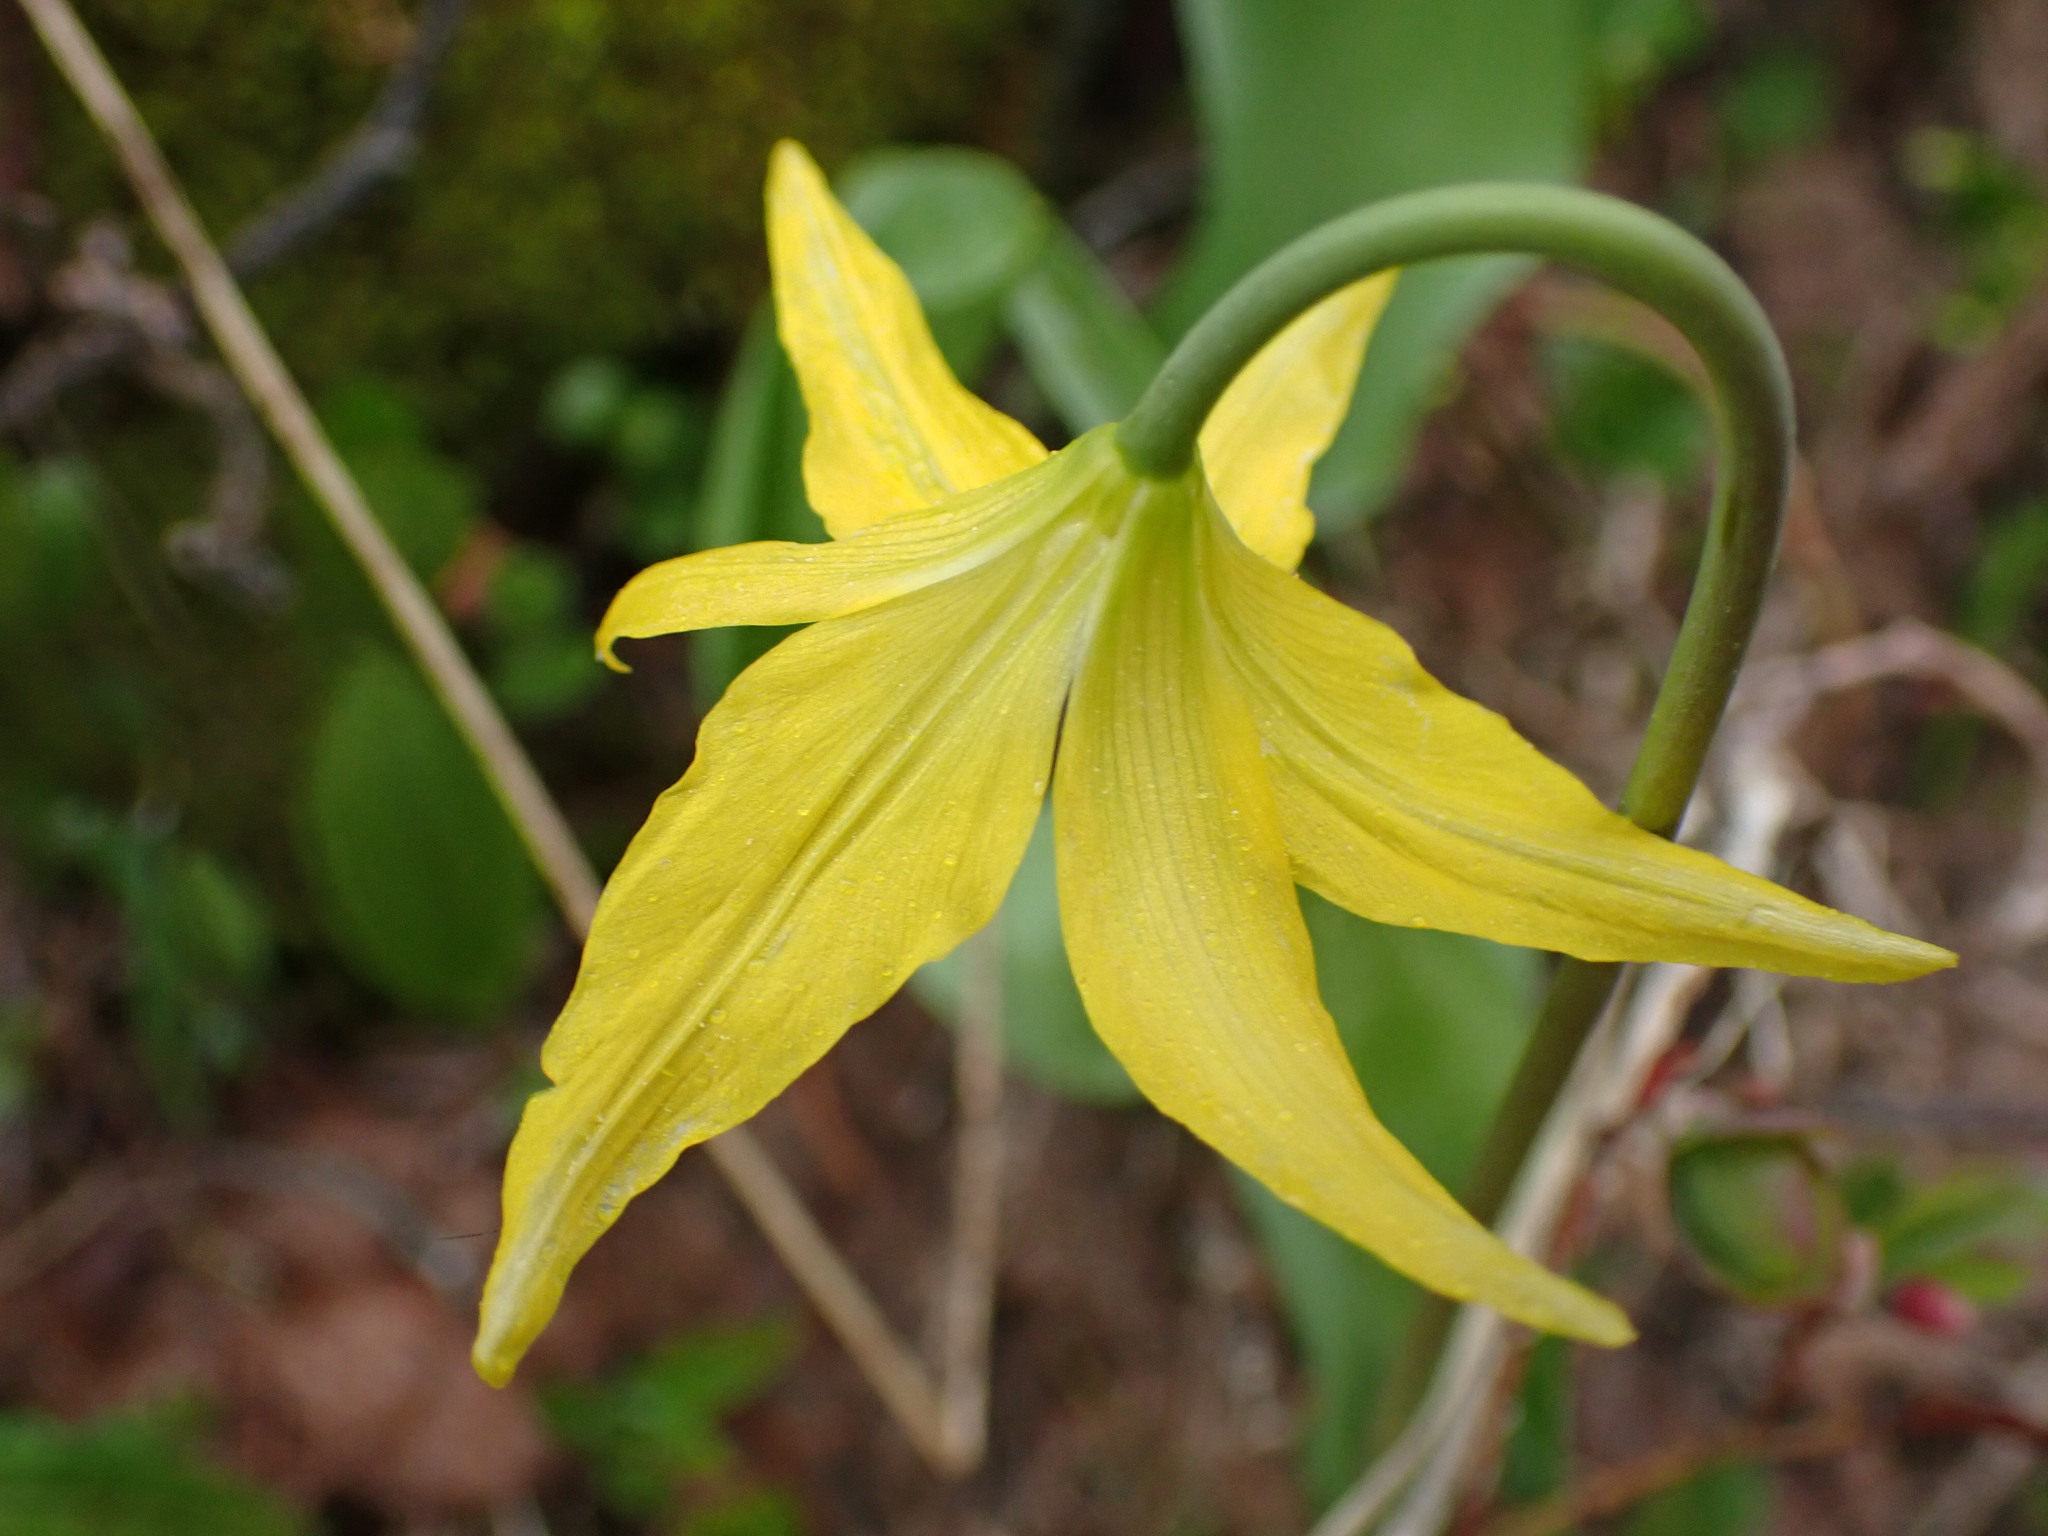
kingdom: Plantae
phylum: Tracheophyta
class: Liliopsida
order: Liliales
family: Liliaceae
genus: Erythronium
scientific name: Erythronium grandiflorum
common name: Avalanche-lily
